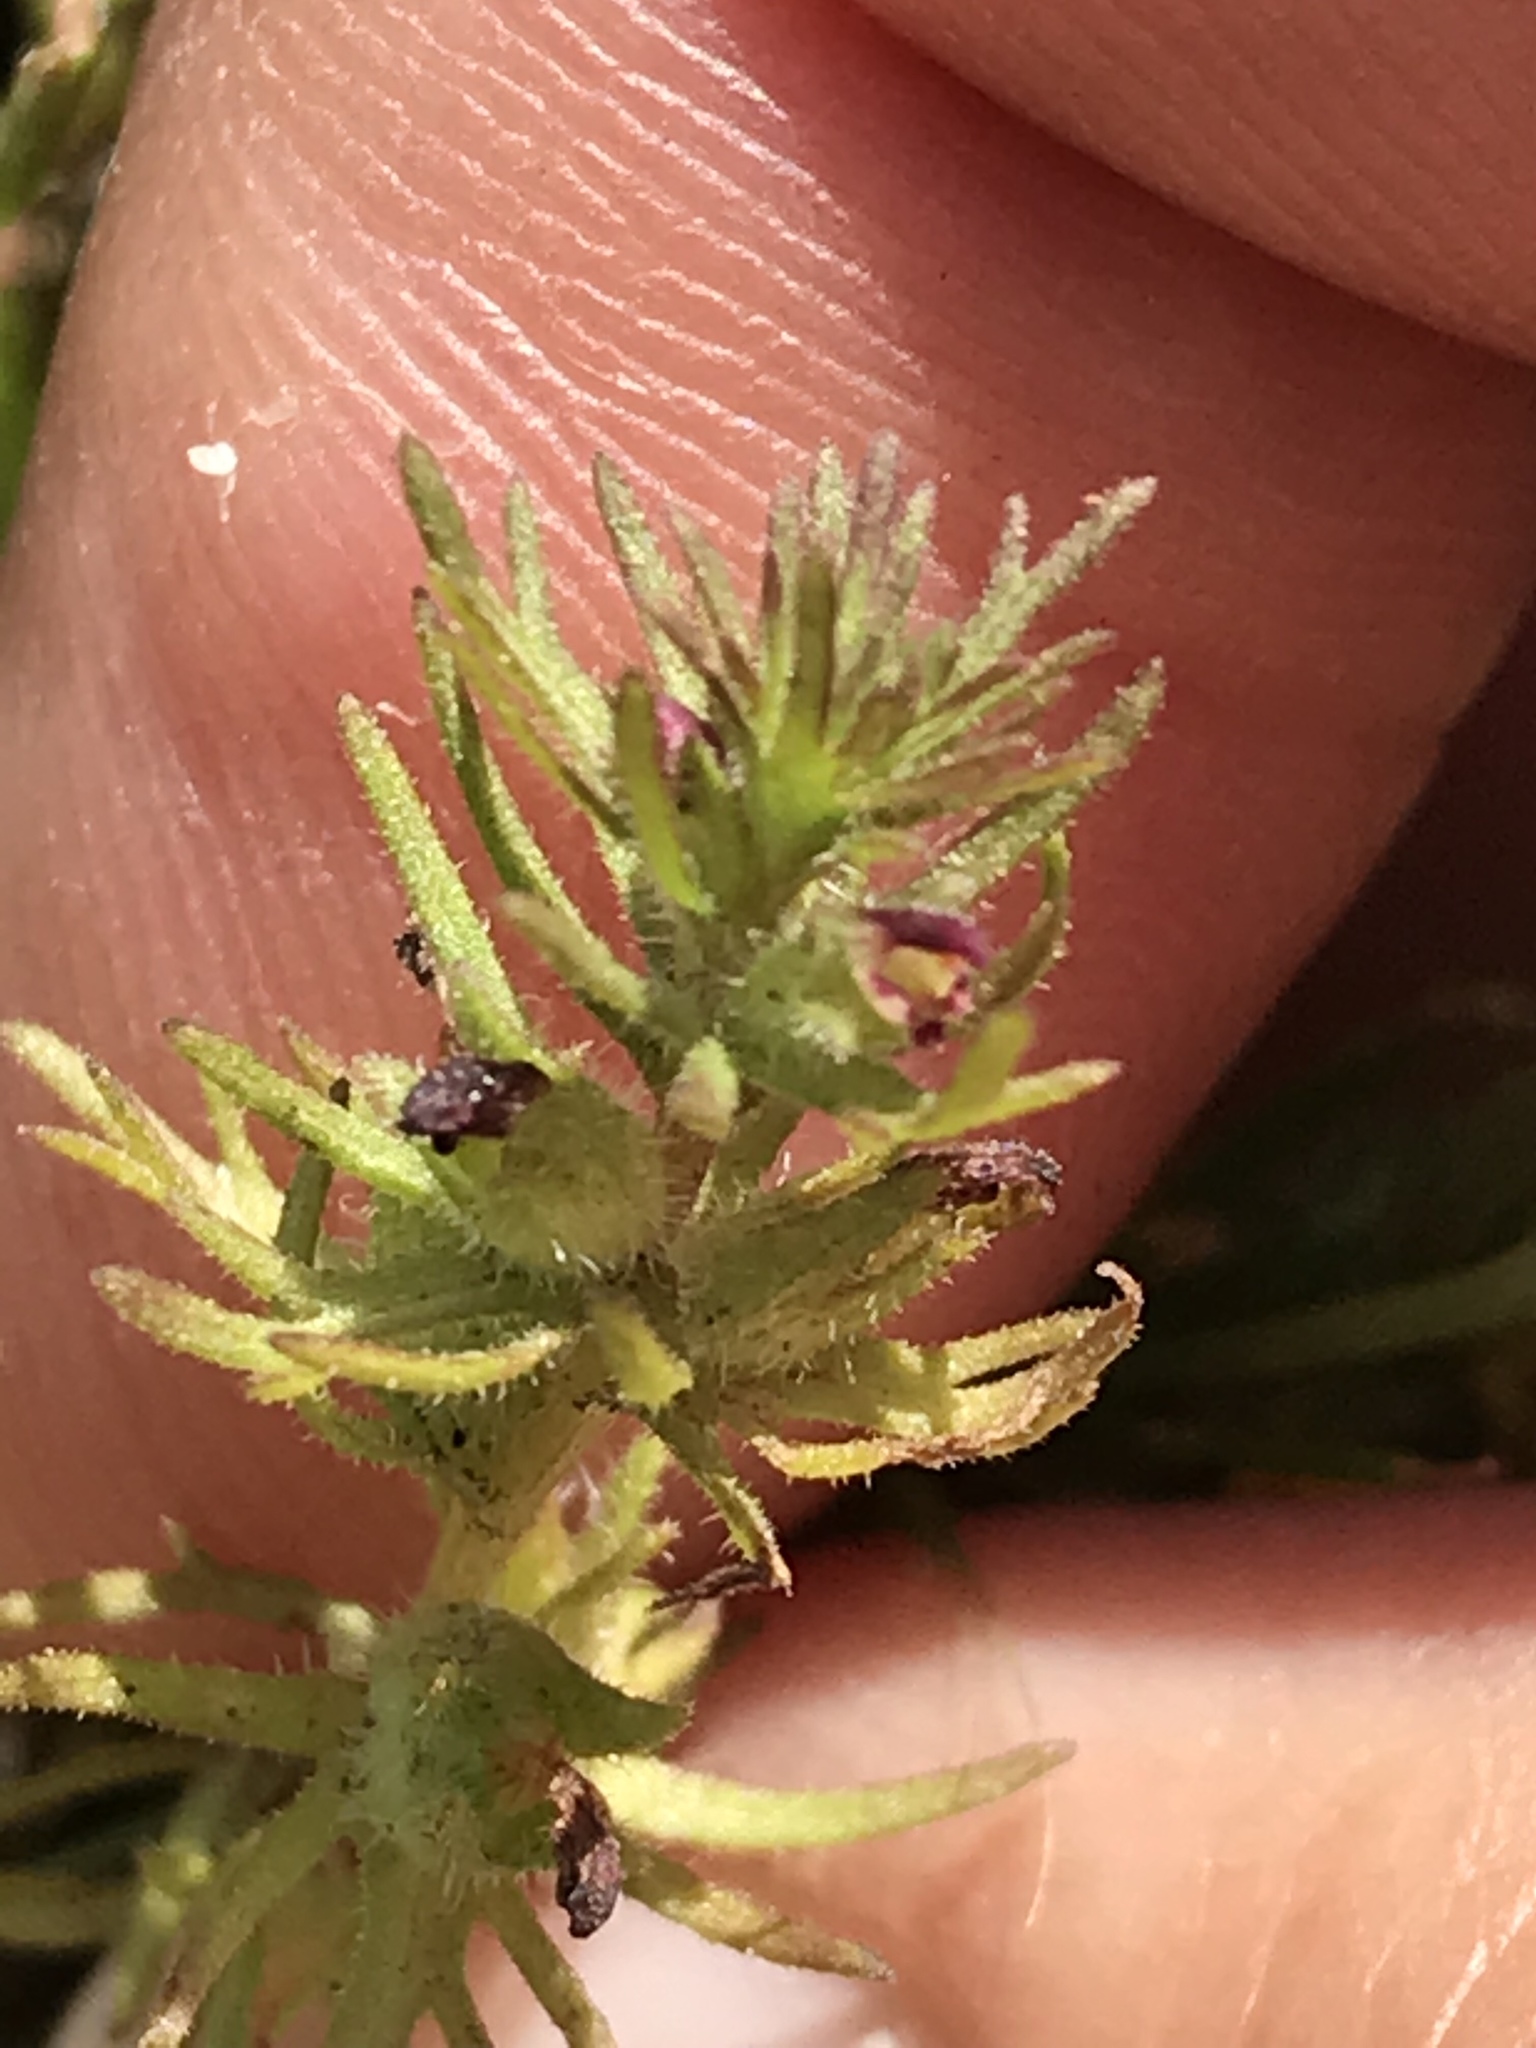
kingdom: Plantae
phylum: Tracheophyta
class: Magnoliopsida
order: Lamiales
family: Orobanchaceae
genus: Triphysaria
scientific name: Triphysaria pusilla
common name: Dwarf false owl-clover
